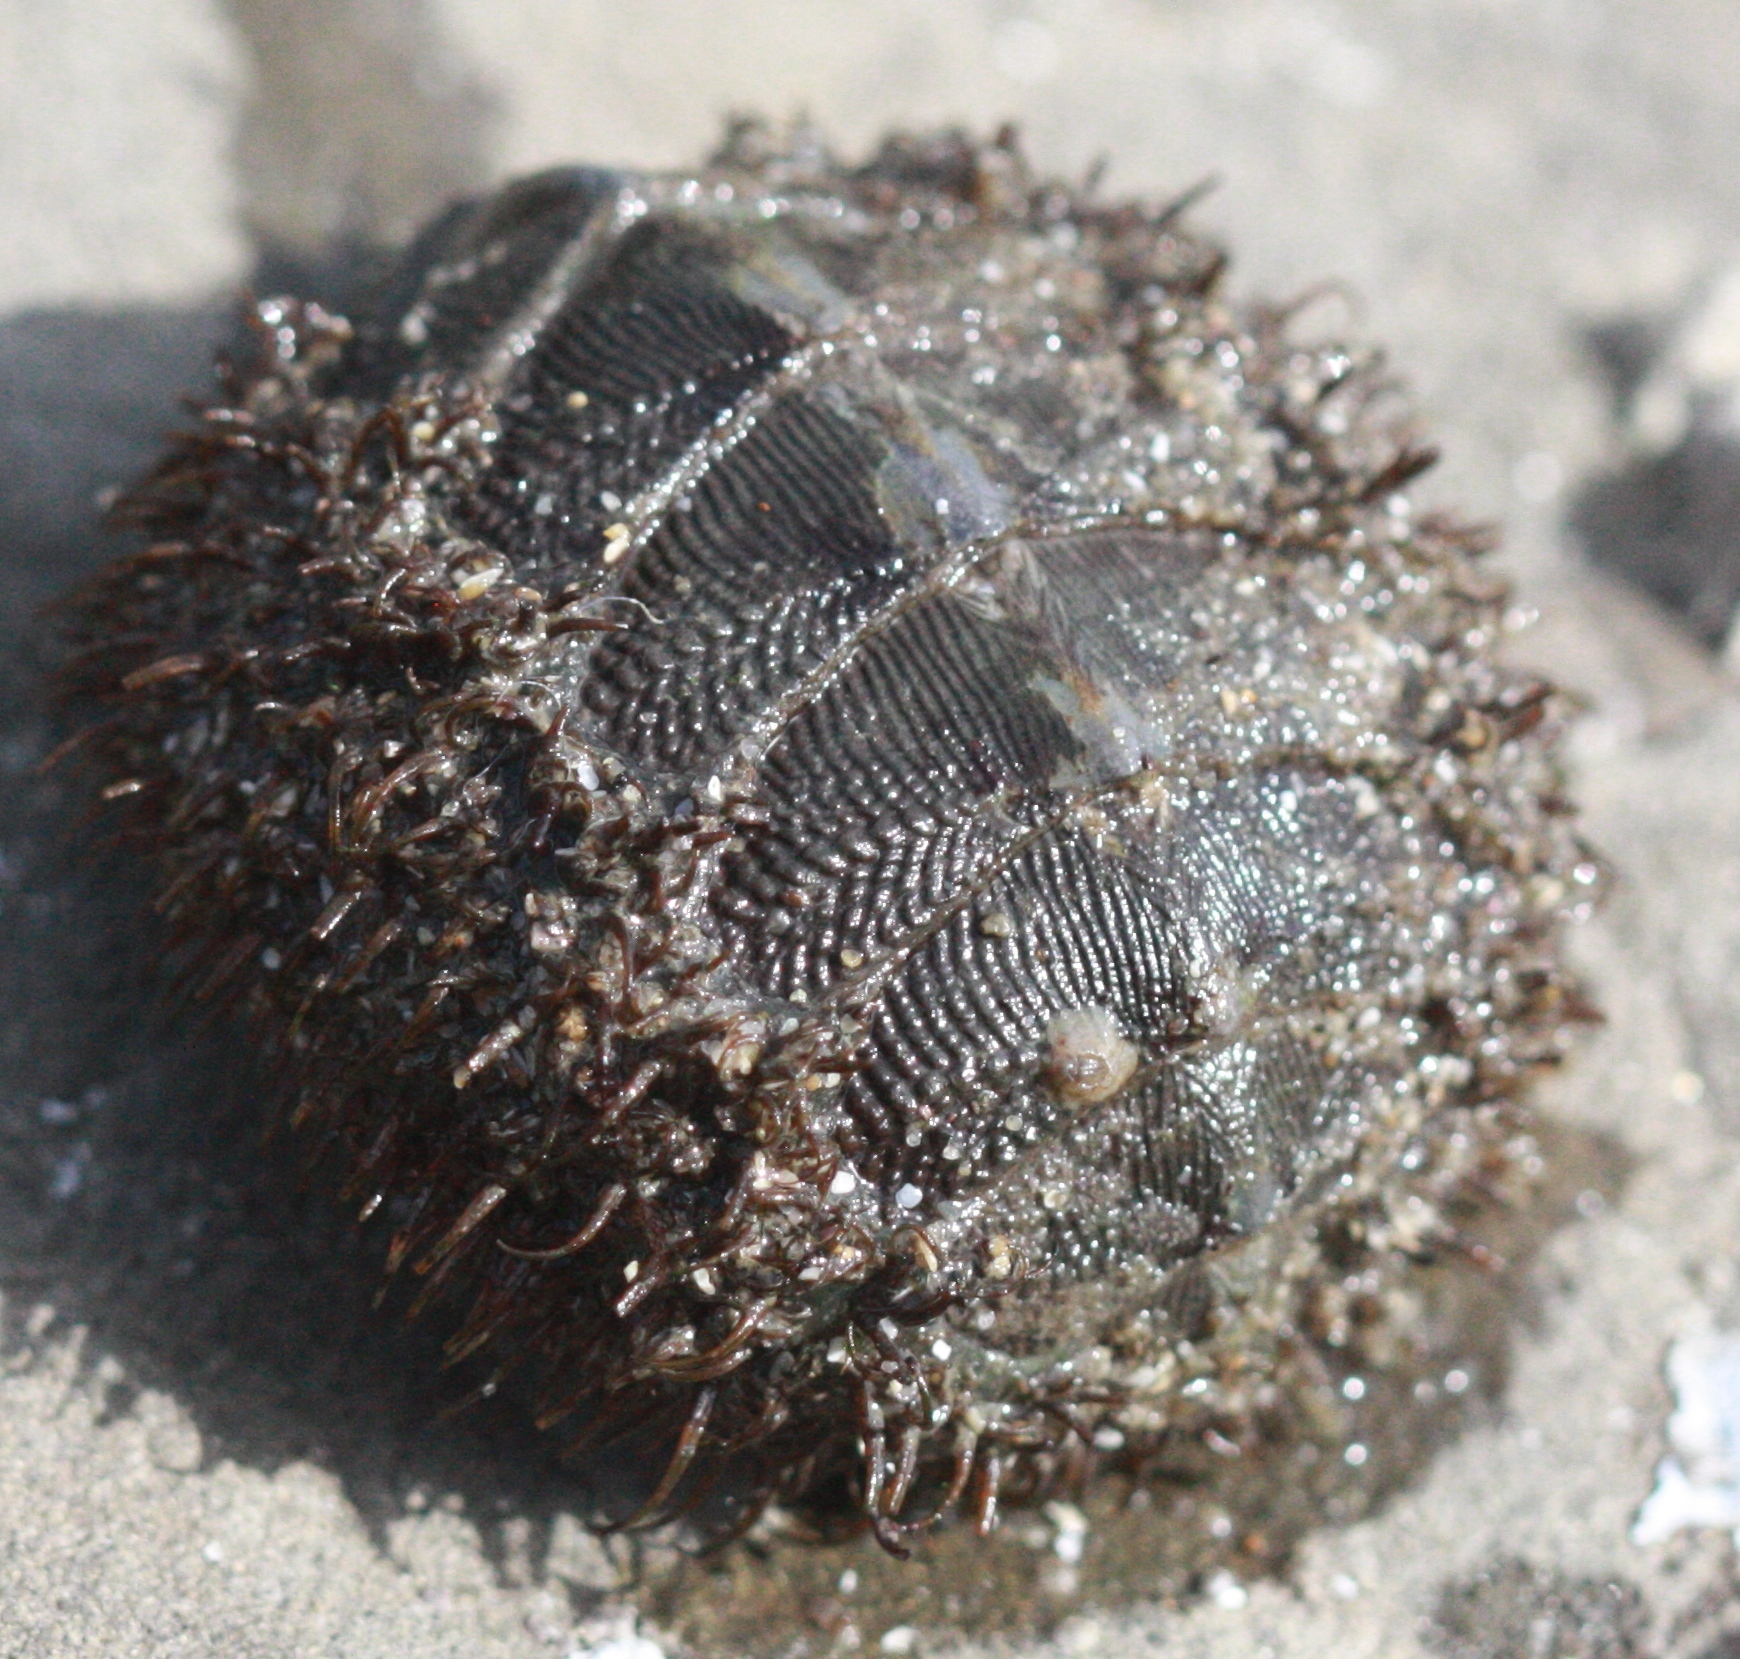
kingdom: Animalia
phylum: Mollusca
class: Polyplacophora
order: Chitonida
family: Mopaliidae
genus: Mopalia
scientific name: Mopalia muscosa
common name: Mossy chiton
